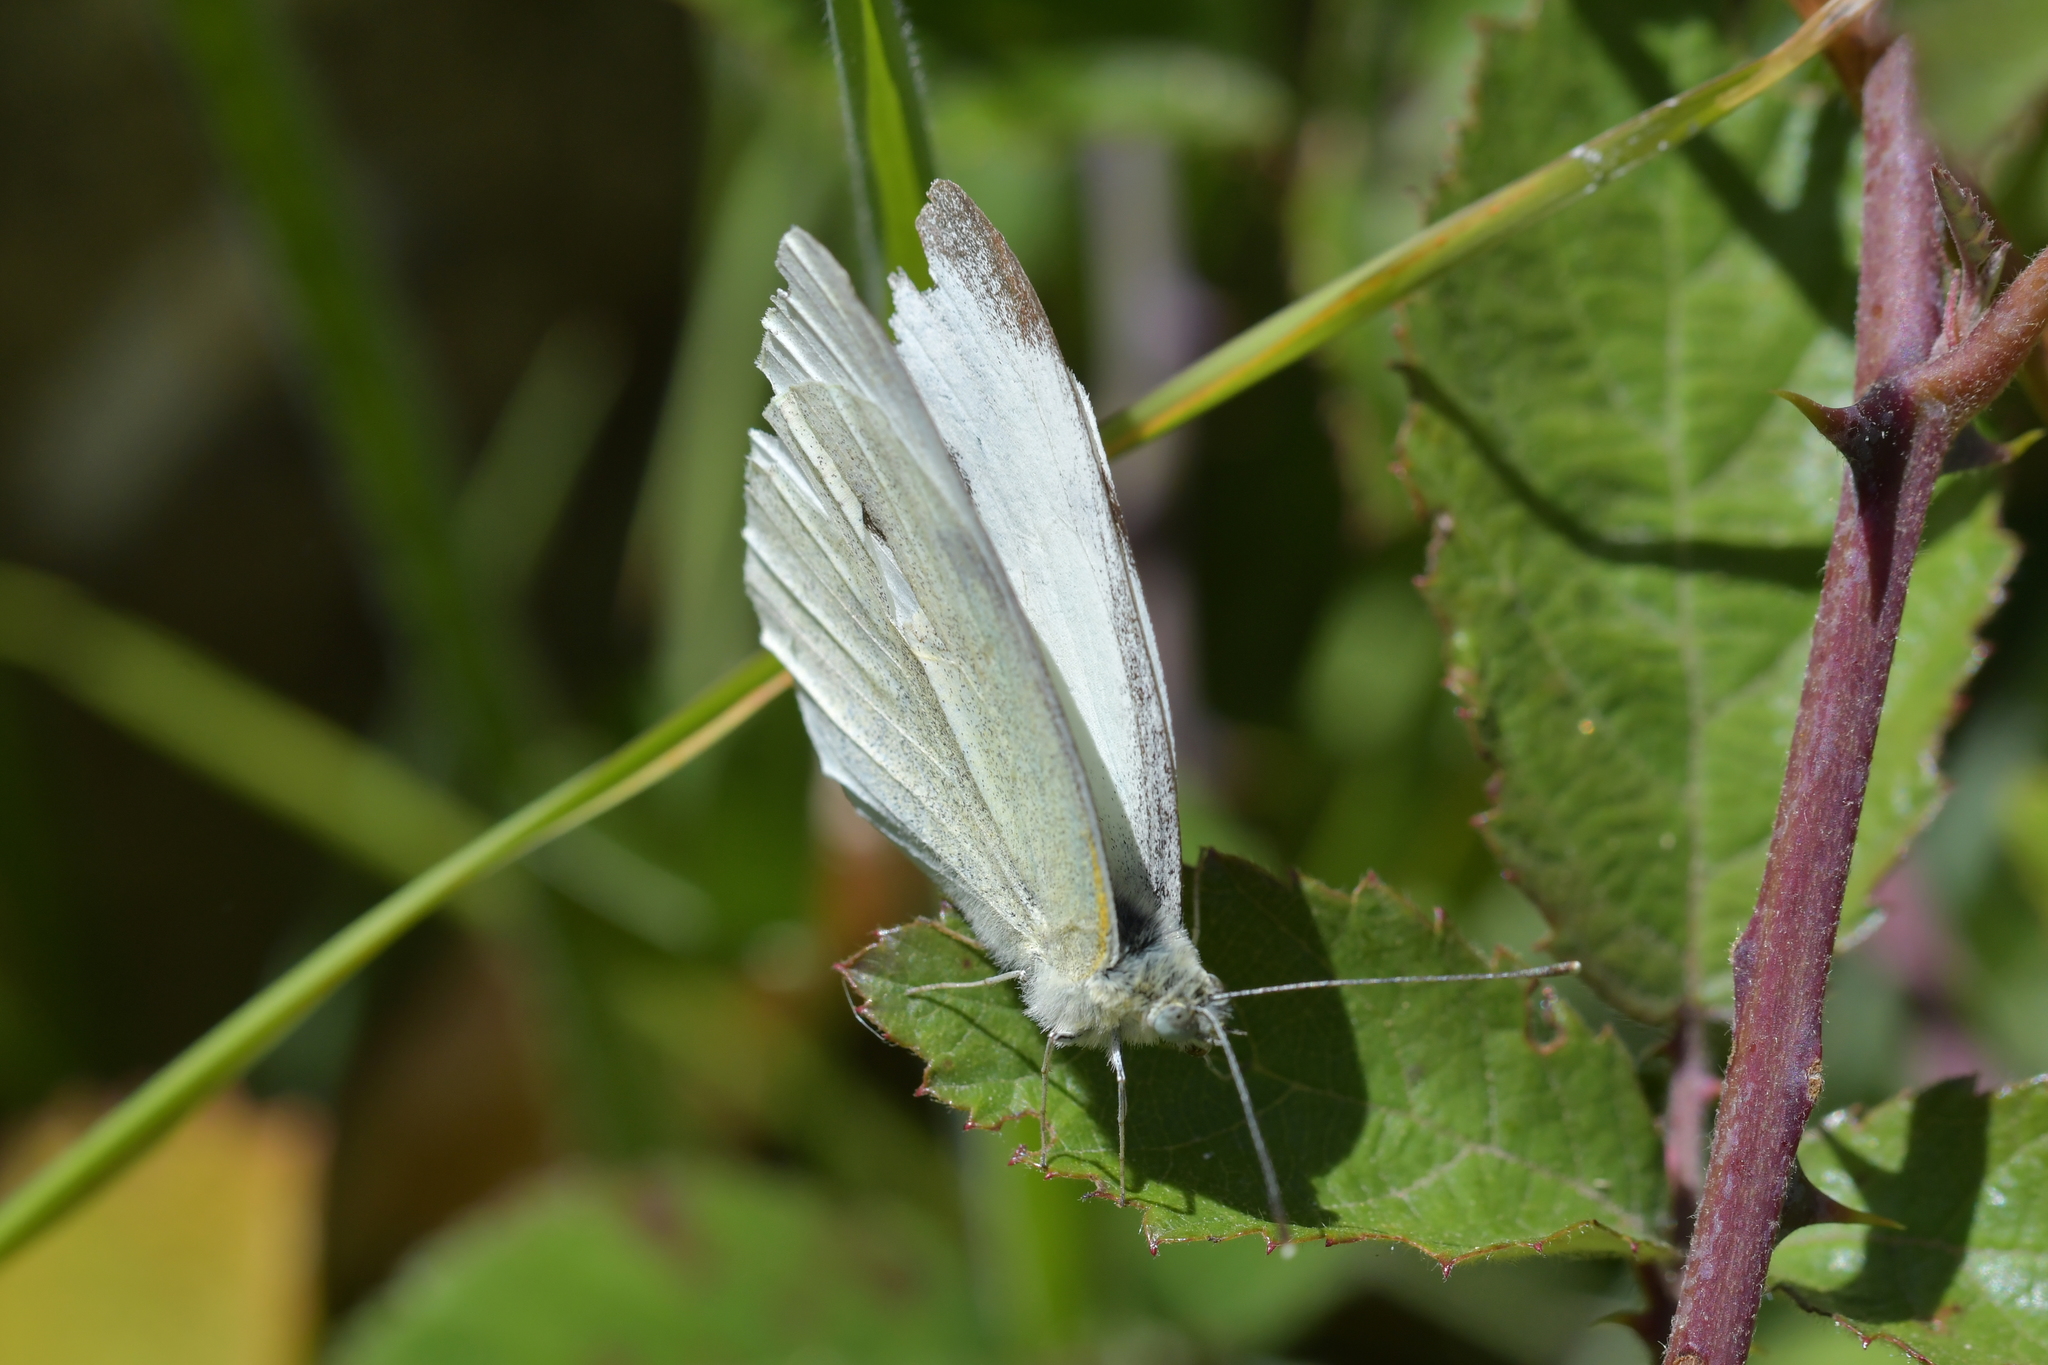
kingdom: Animalia
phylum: Arthropoda
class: Insecta
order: Lepidoptera
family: Pieridae
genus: Pieris
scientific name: Pieris rapae
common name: Small white
